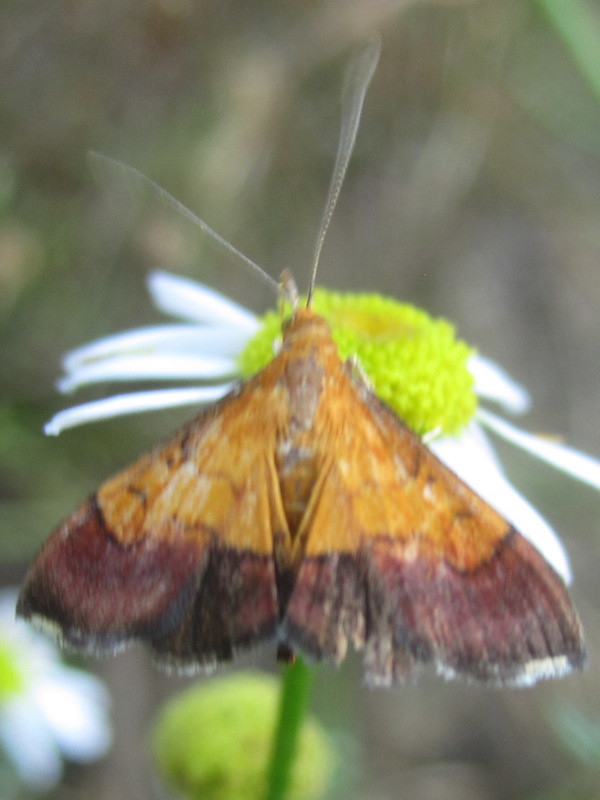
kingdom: Animalia
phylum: Arthropoda
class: Insecta
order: Lepidoptera
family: Crambidae
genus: Pyrausta
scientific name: Pyrausta bicoloralis
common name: Bicolored pyrausta moth
